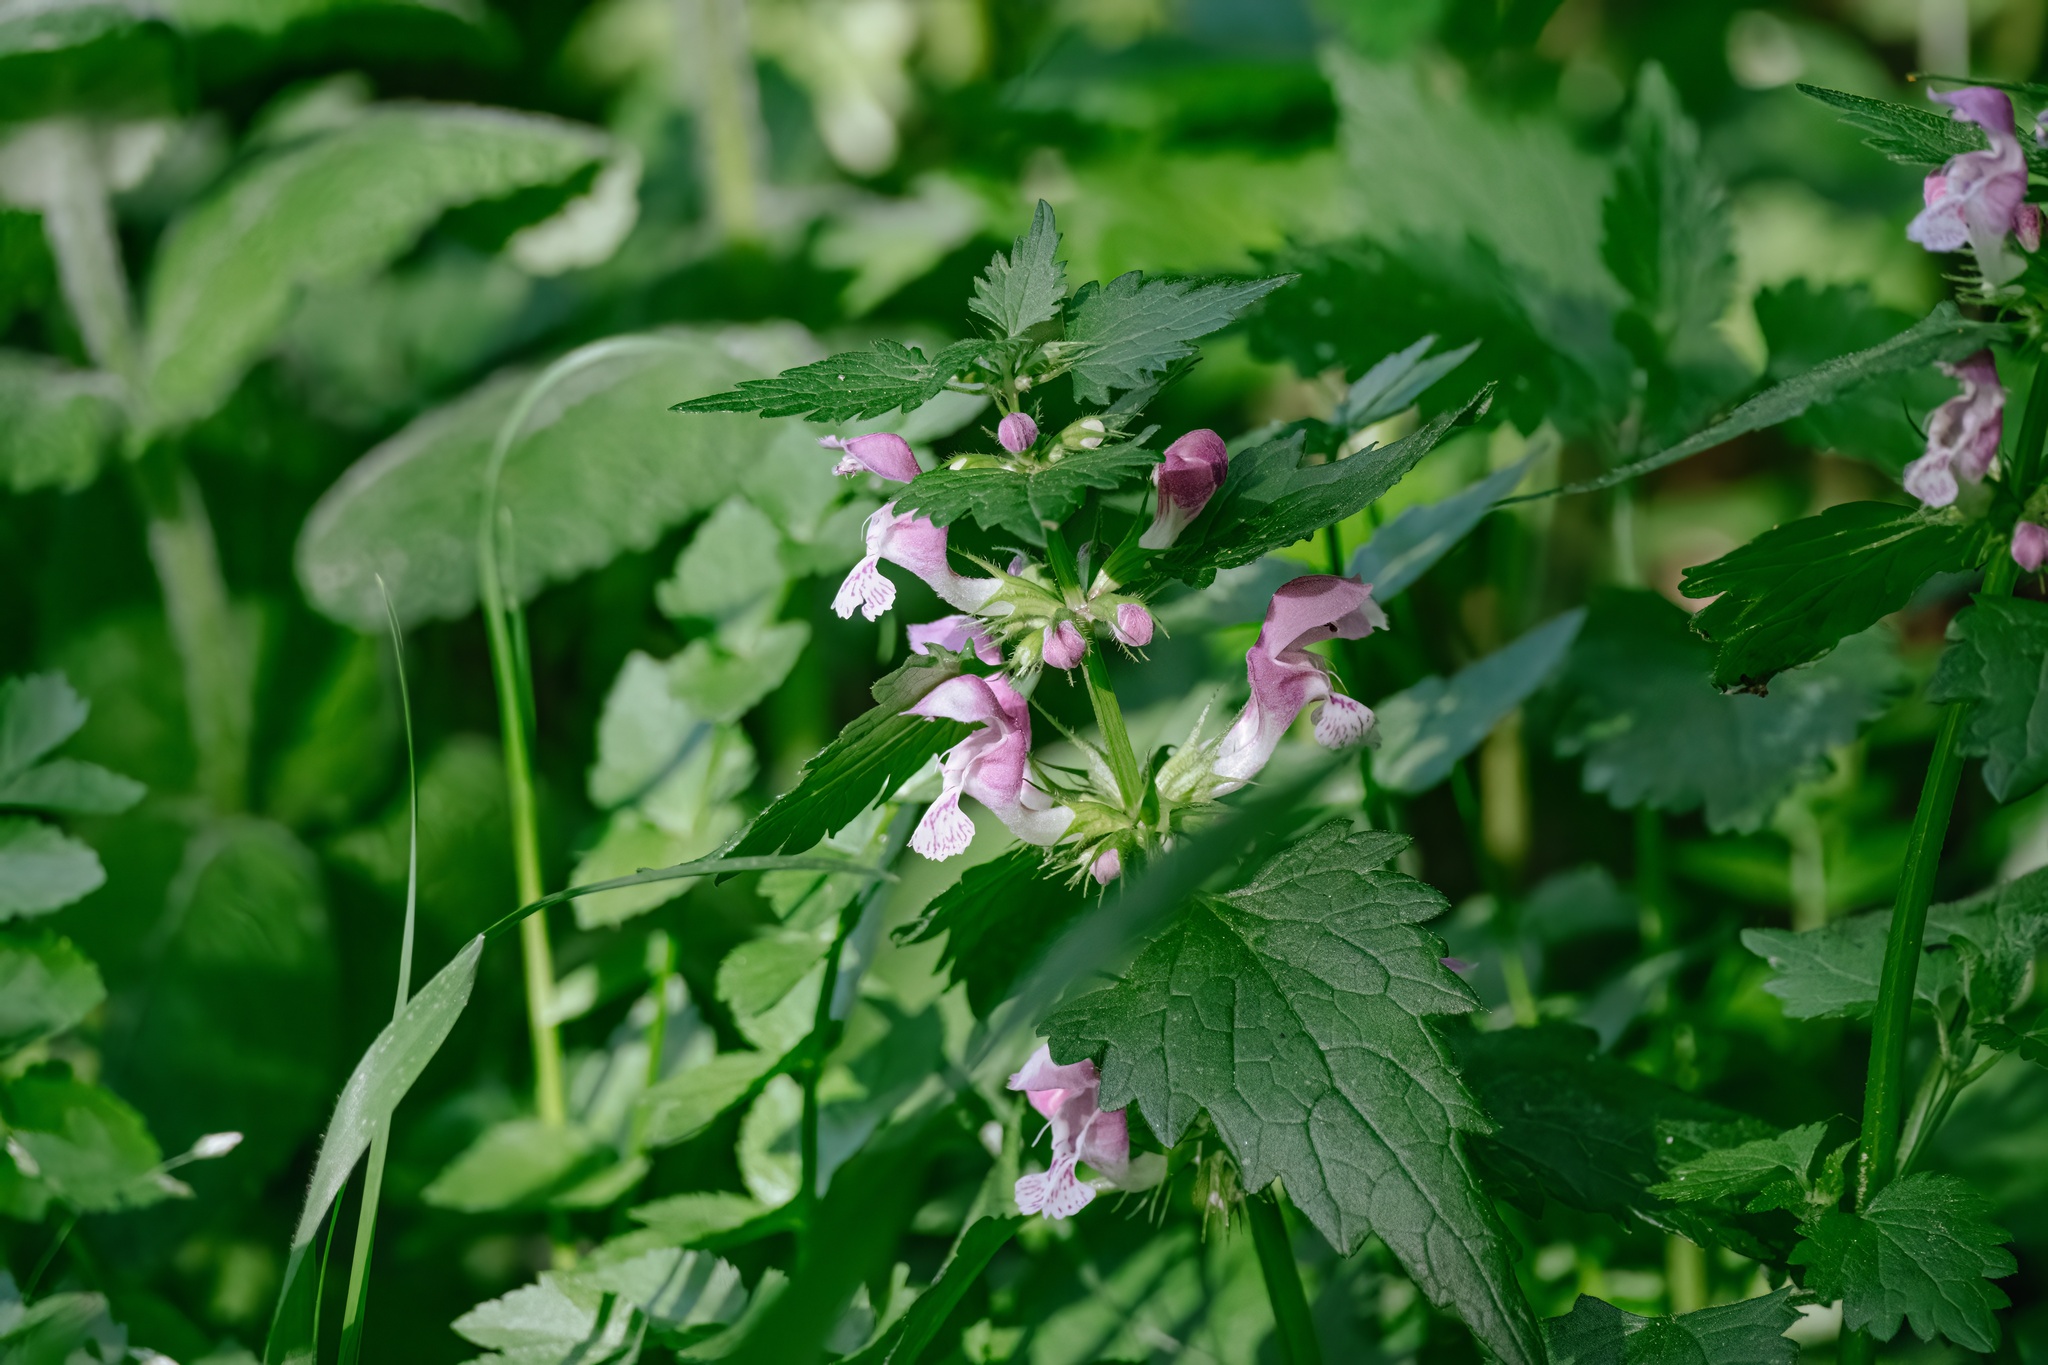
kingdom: Plantae
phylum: Tracheophyta
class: Magnoliopsida
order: Lamiales
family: Lamiaceae
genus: Lamium
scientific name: Lamium maculatum
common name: Spotted dead-nettle
